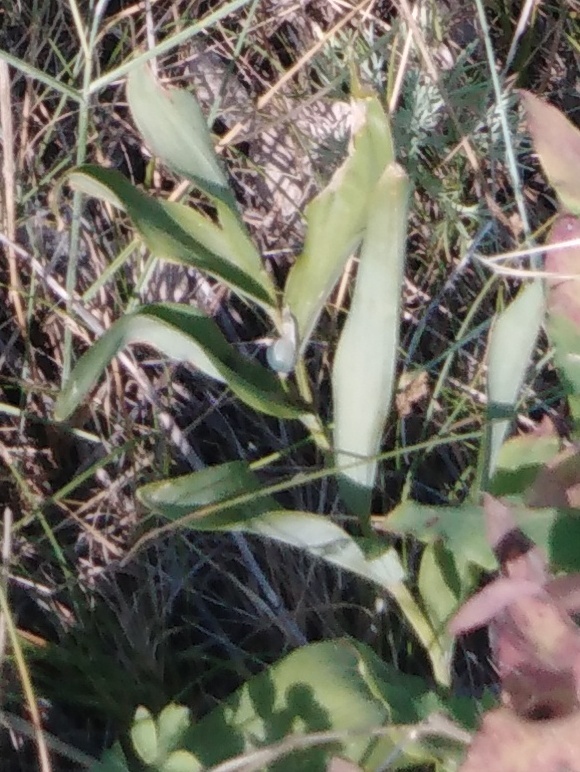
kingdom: Plantae
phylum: Tracheophyta
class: Liliopsida
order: Asparagales
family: Asparagaceae
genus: Polygonatum
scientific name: Polygonatum multiflorum
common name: Solomon's-seal
